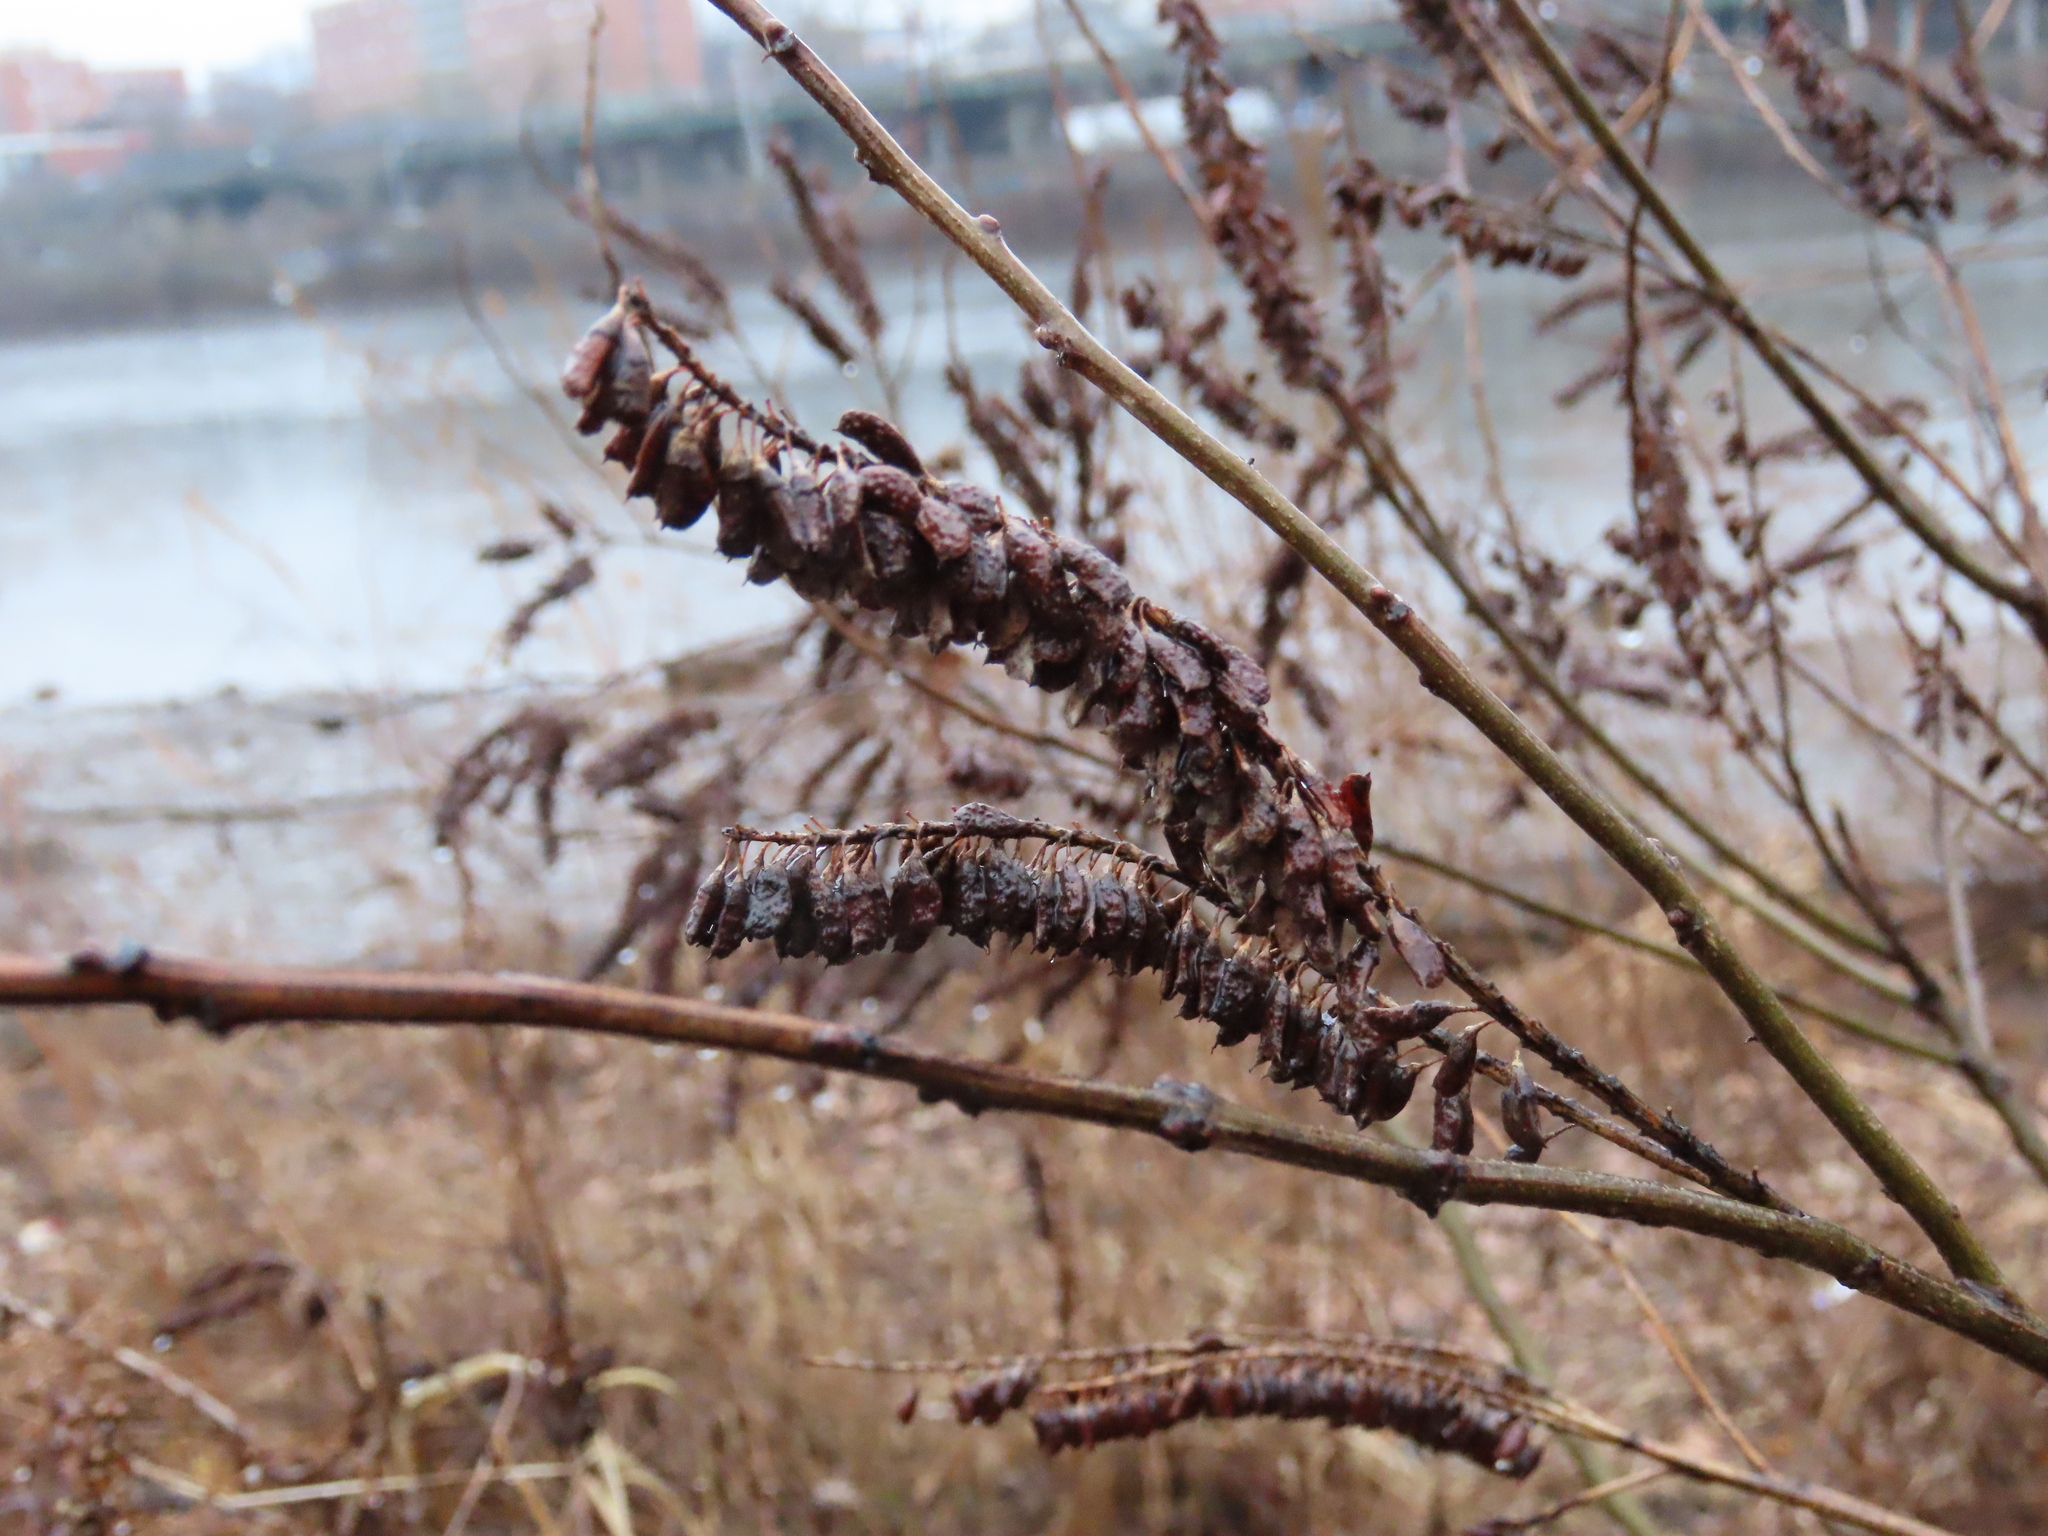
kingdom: Plantae
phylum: Tracheophyta
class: Magnoliopsida
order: Fabales
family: Fabaceae
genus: Amorpha
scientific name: Amorpha fruticosa
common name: False indigo
